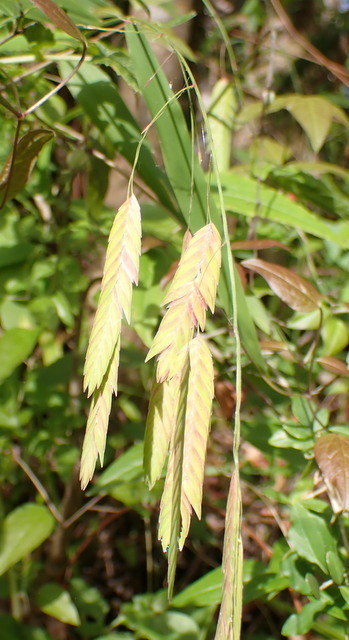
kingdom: Plantae
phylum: Tracheophyta
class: Liliopsida
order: Poales
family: Poaceae
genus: Chasmanthium
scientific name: Chasmanthium latifolium
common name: Broad-leaved chasmanthium
